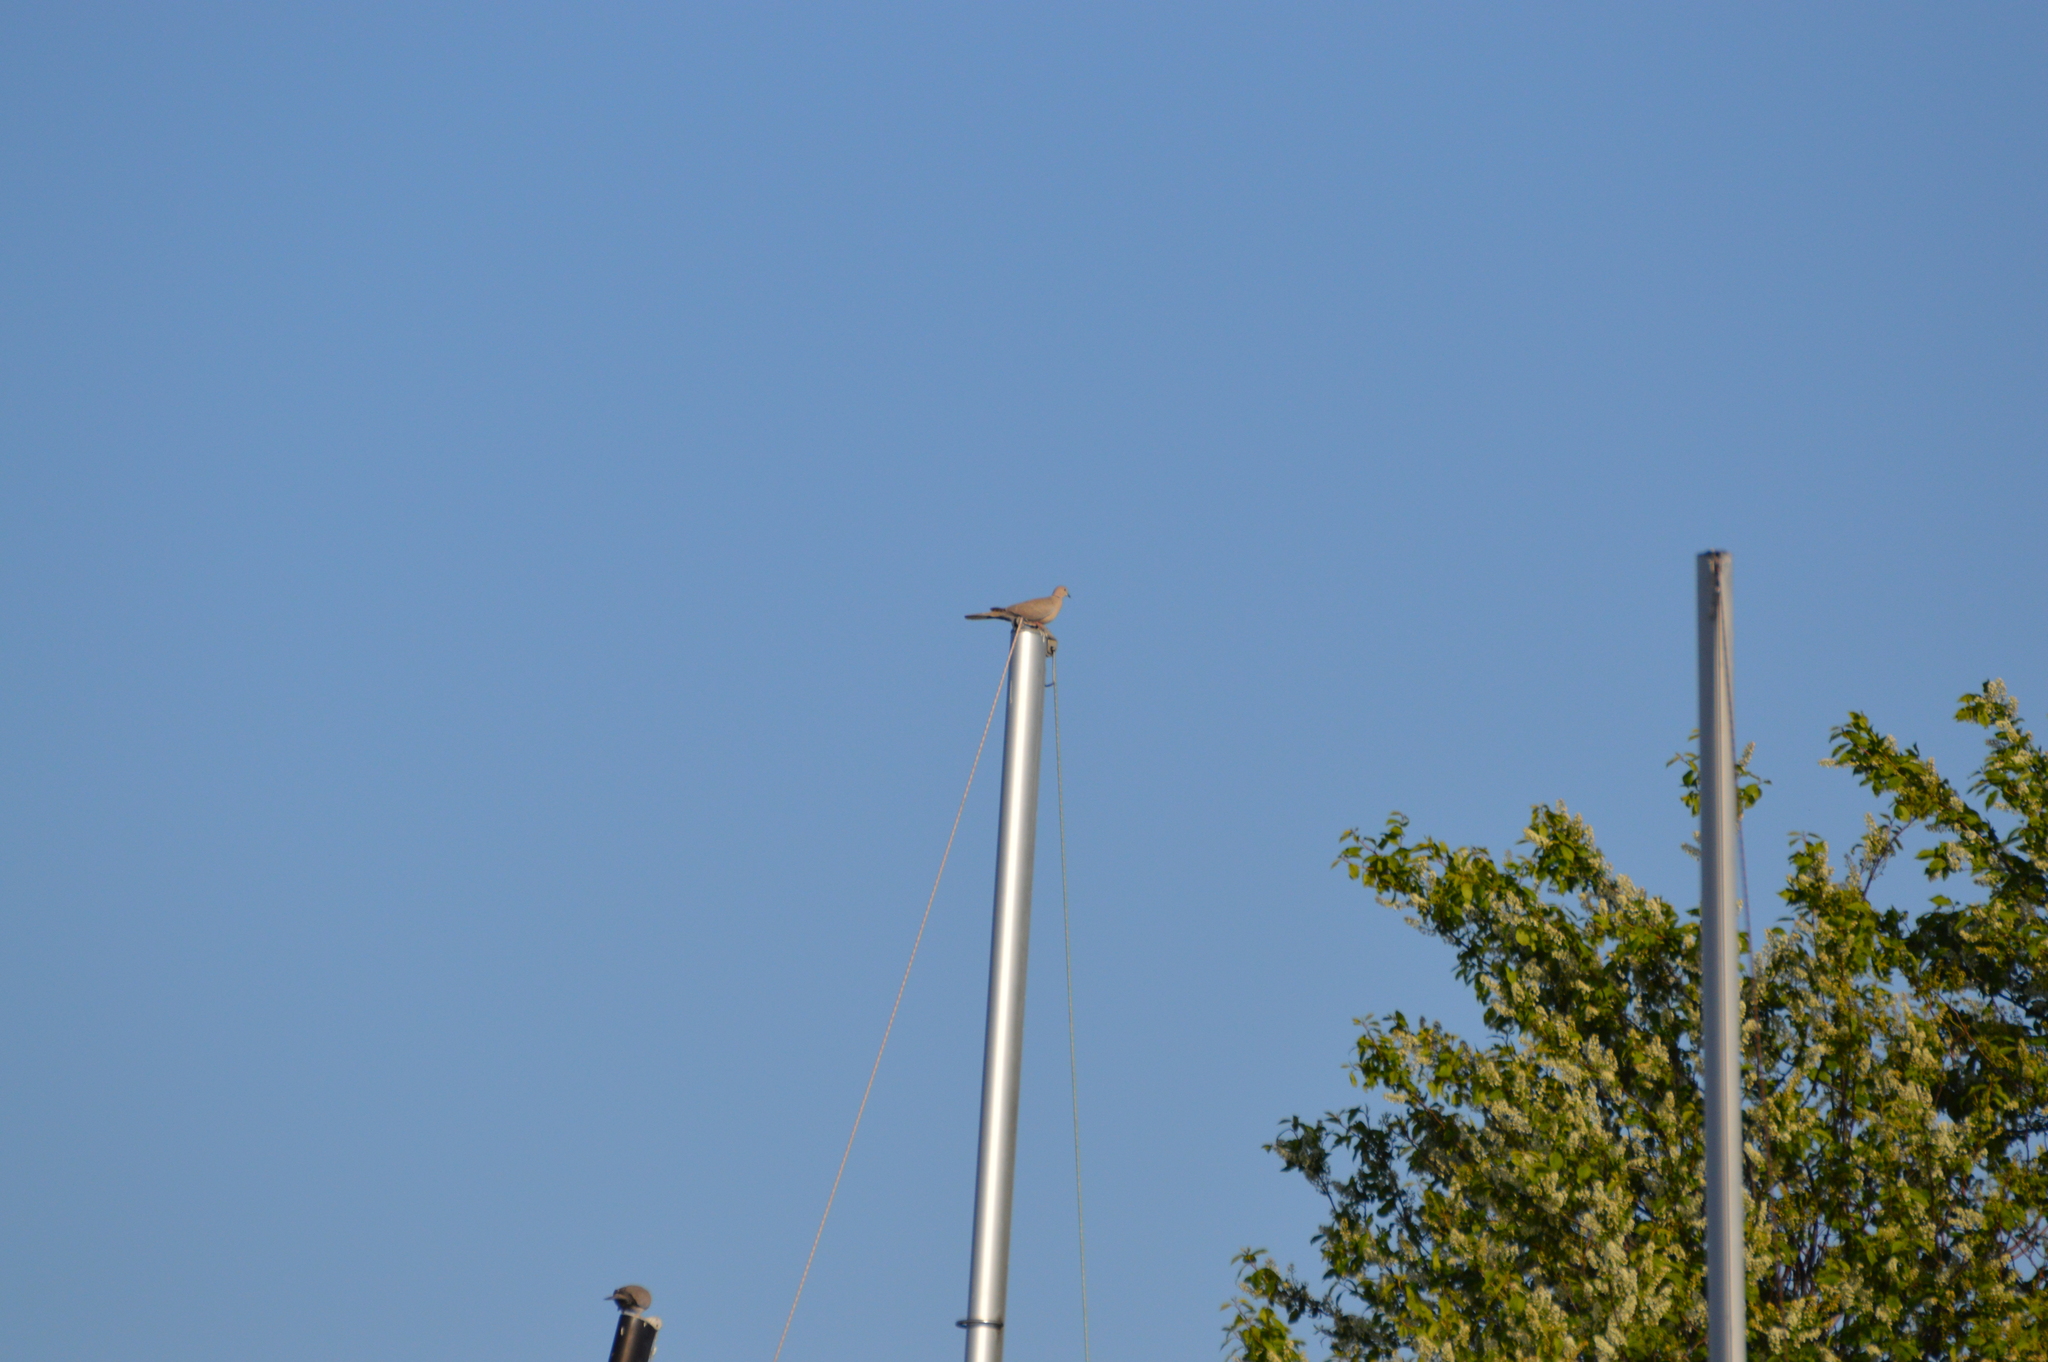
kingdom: Animalia
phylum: Chordata
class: Aves
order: Columbiformes
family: Columbidae
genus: Streptopelia
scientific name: Streptopelia decaocto
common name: Eurasian collared dove
